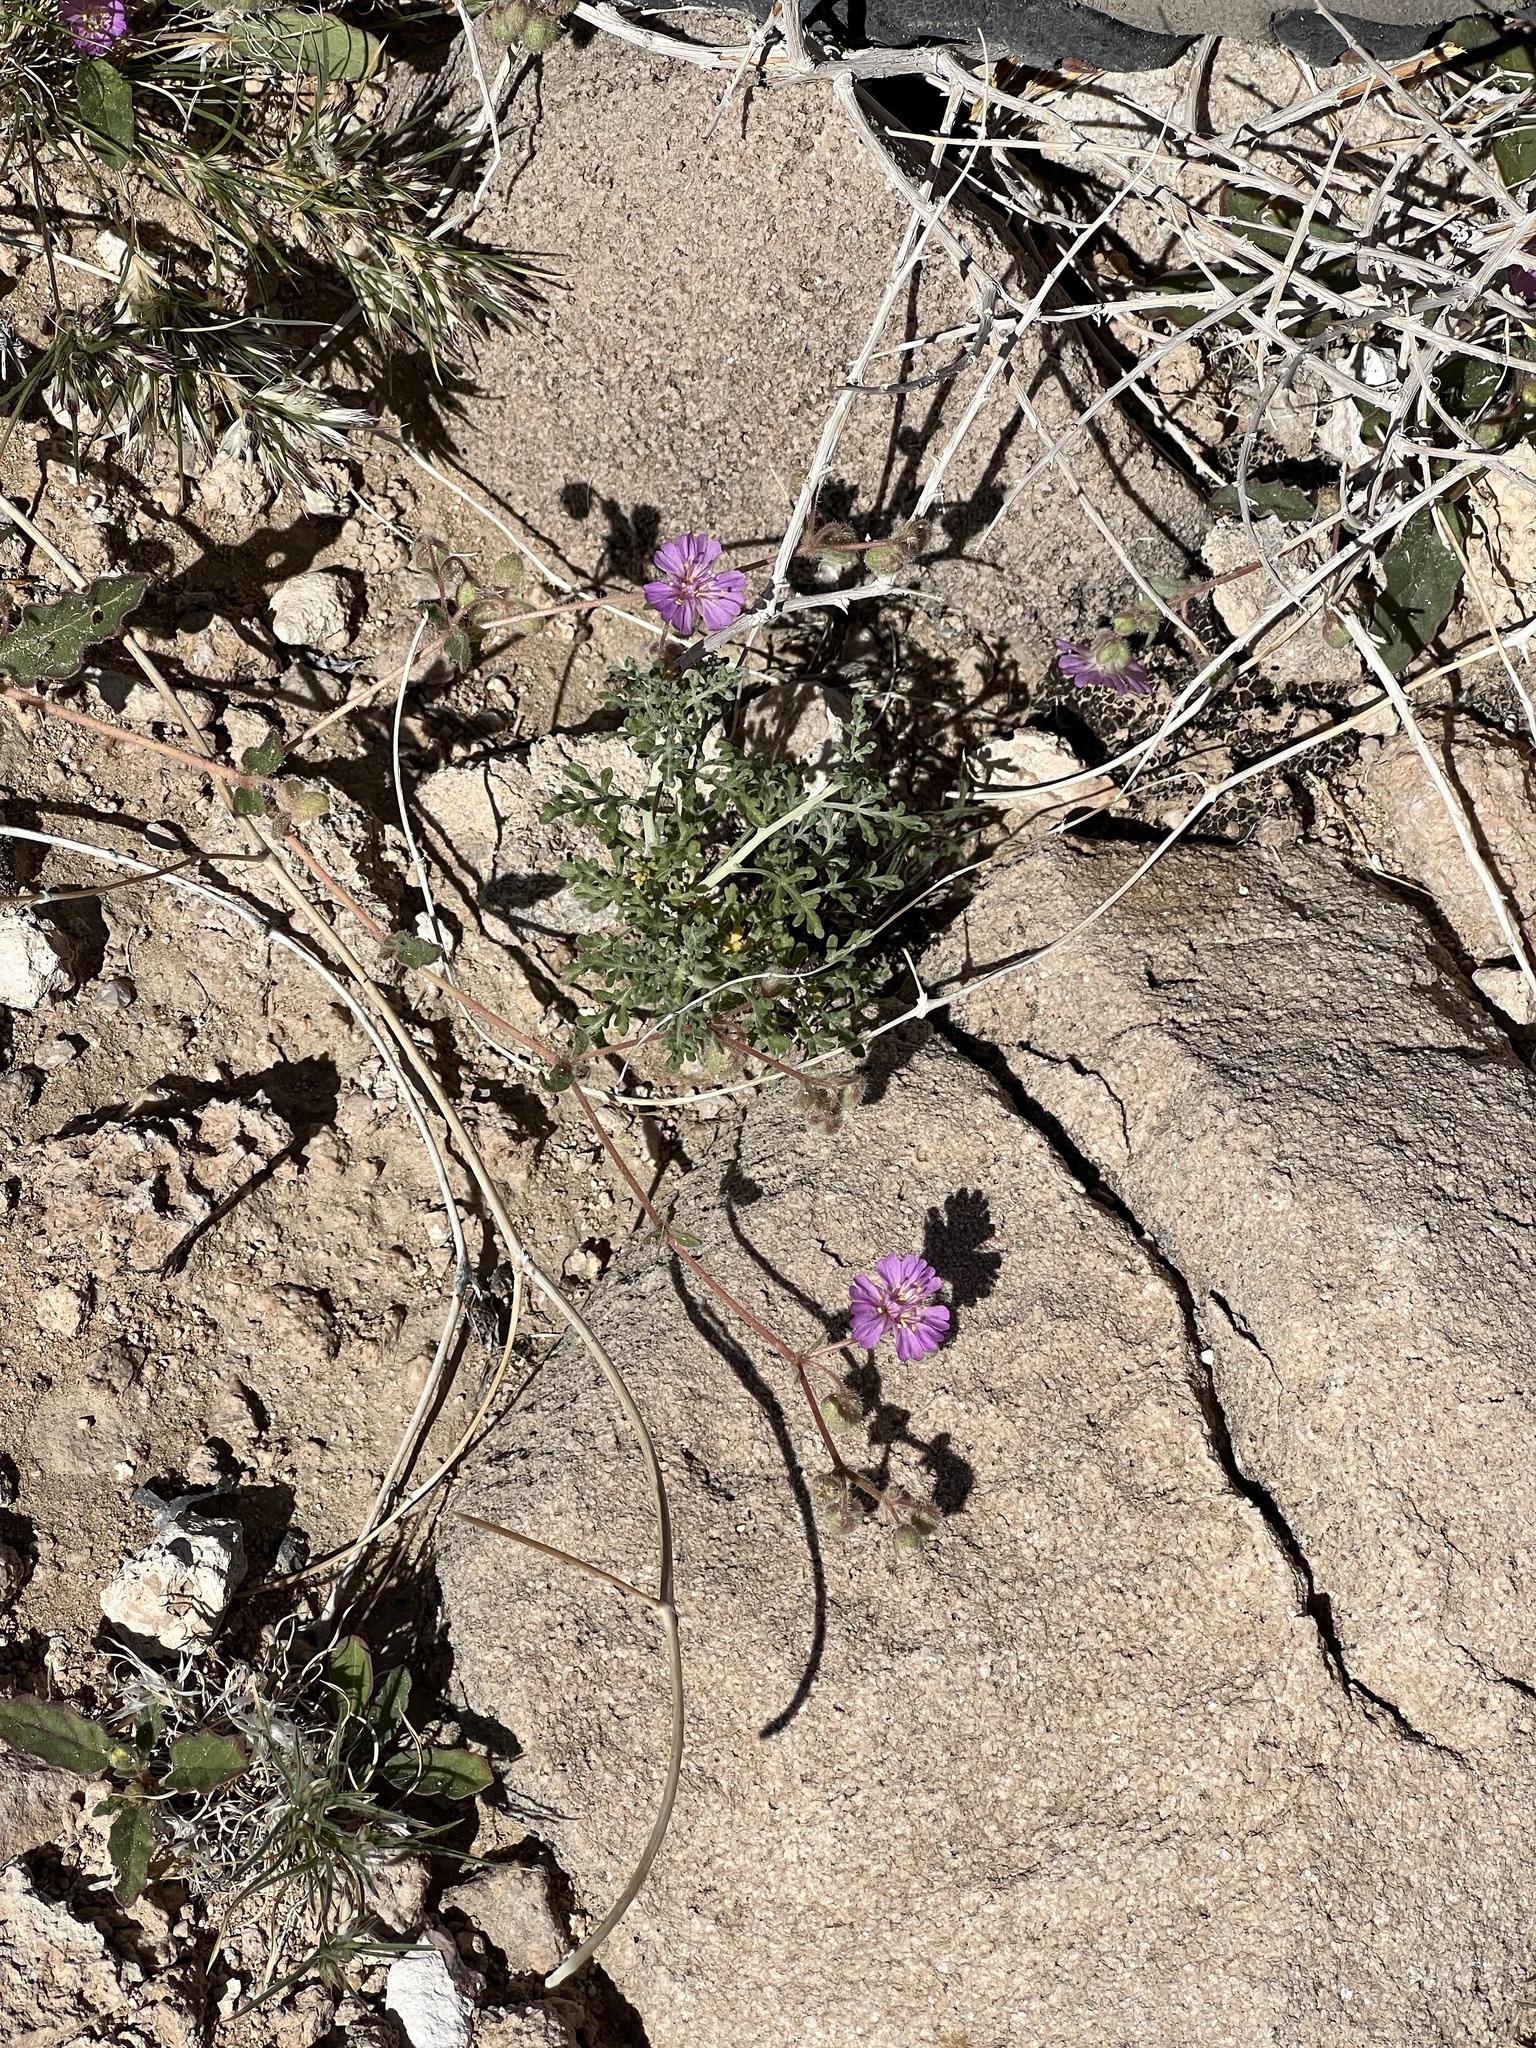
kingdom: Plantae
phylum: Tracheophyta
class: Magnoliopsida
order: Caryophyllales
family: Nyctaginaceae
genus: Allionia
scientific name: Allionia incarnata
